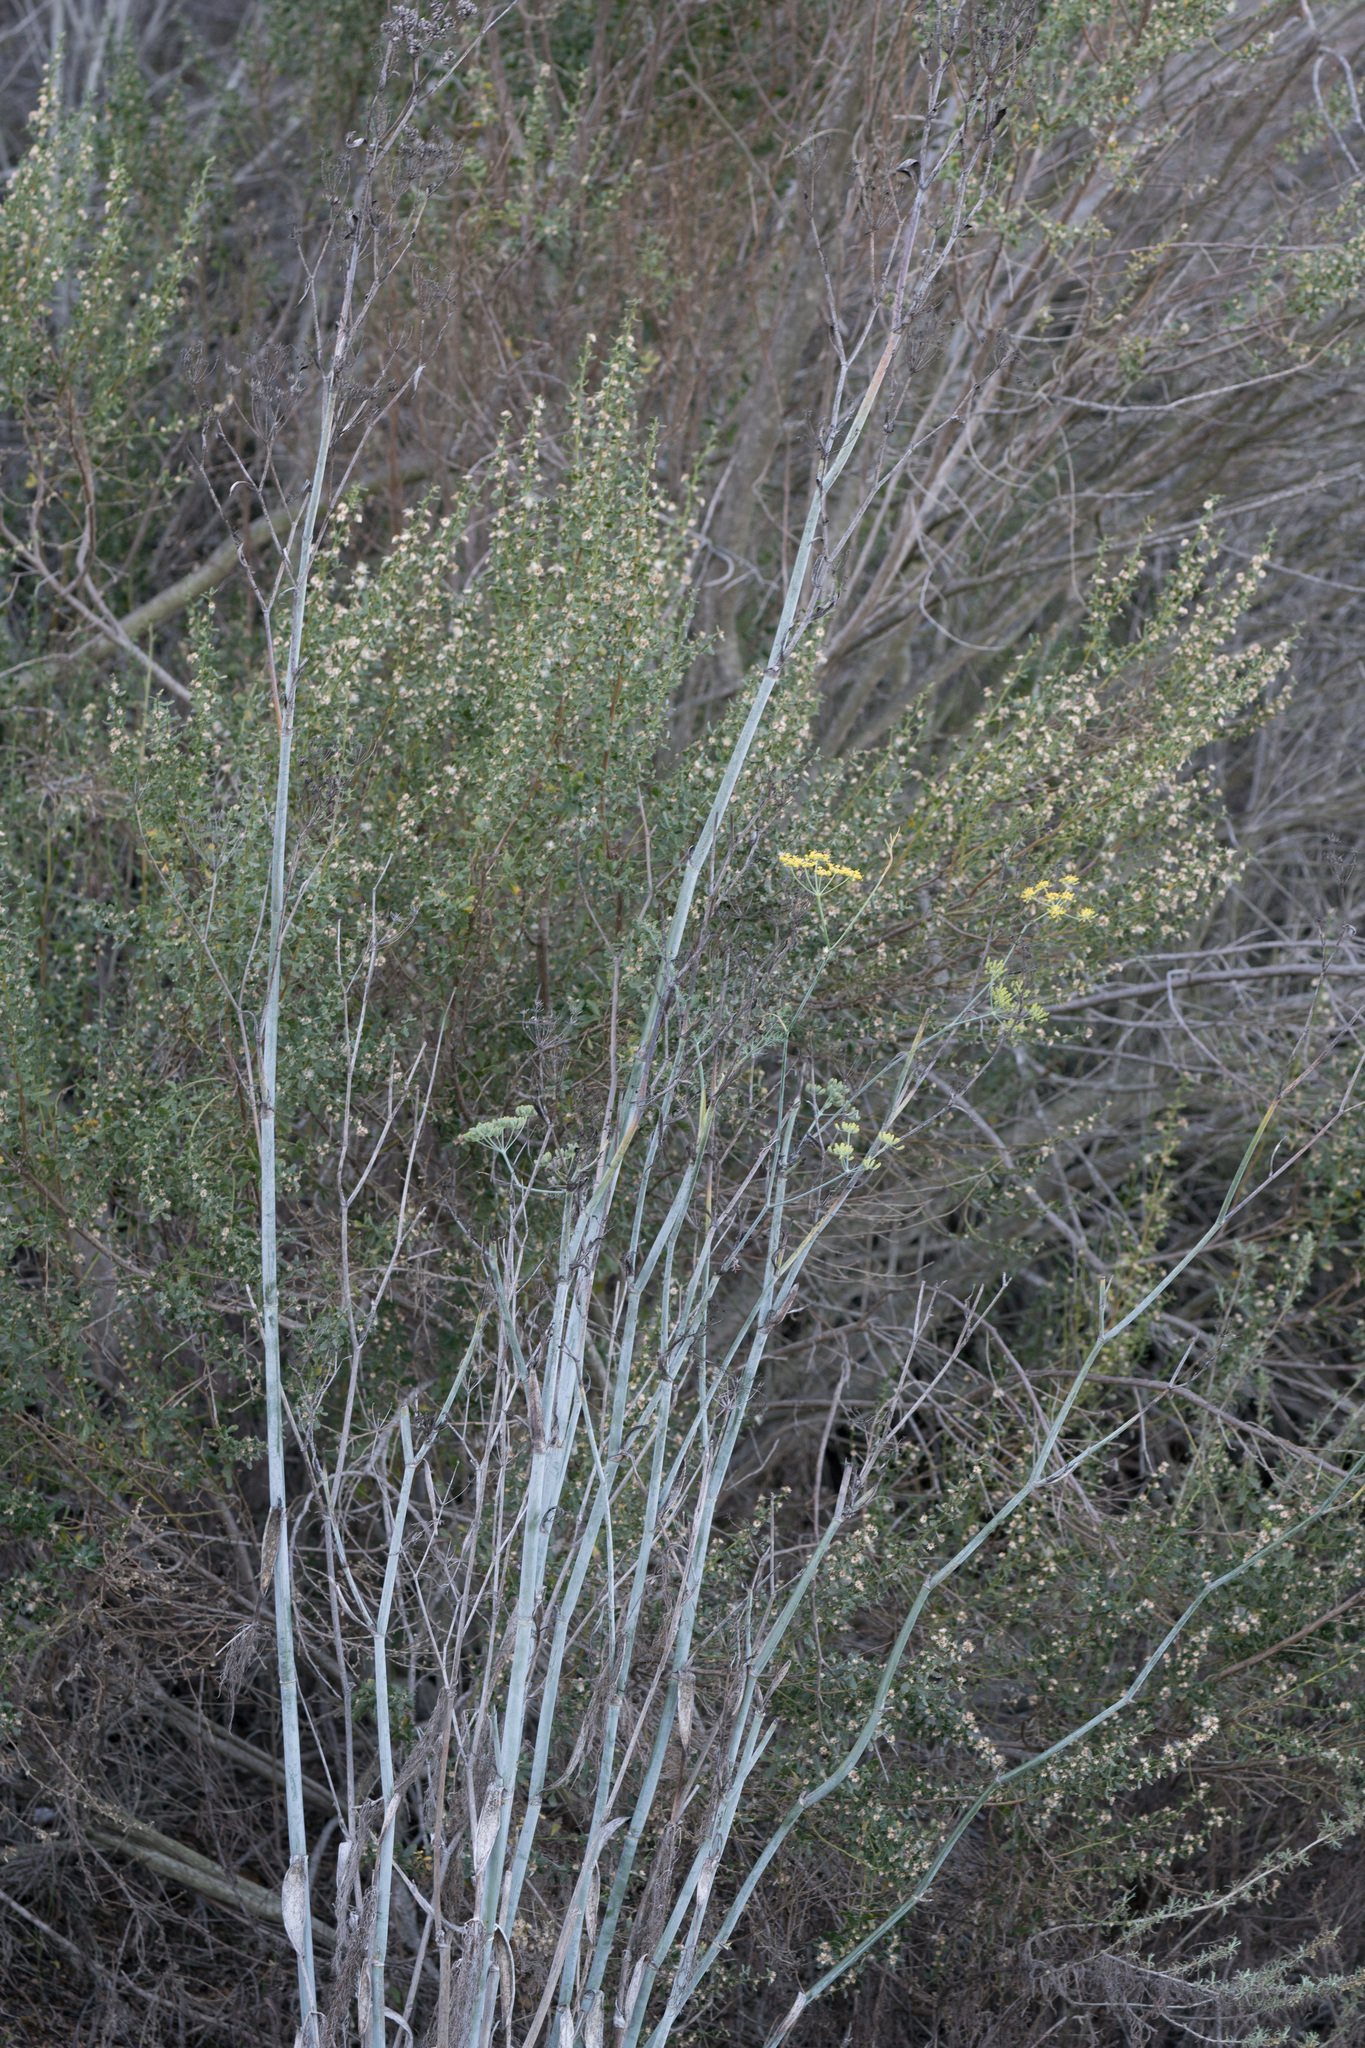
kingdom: Plantae
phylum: Tracheophyta
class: Magnoliopsida
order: Apiales
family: Apiaceae
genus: Foeniculum
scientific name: Foeniculum vulgare
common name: Fennel
